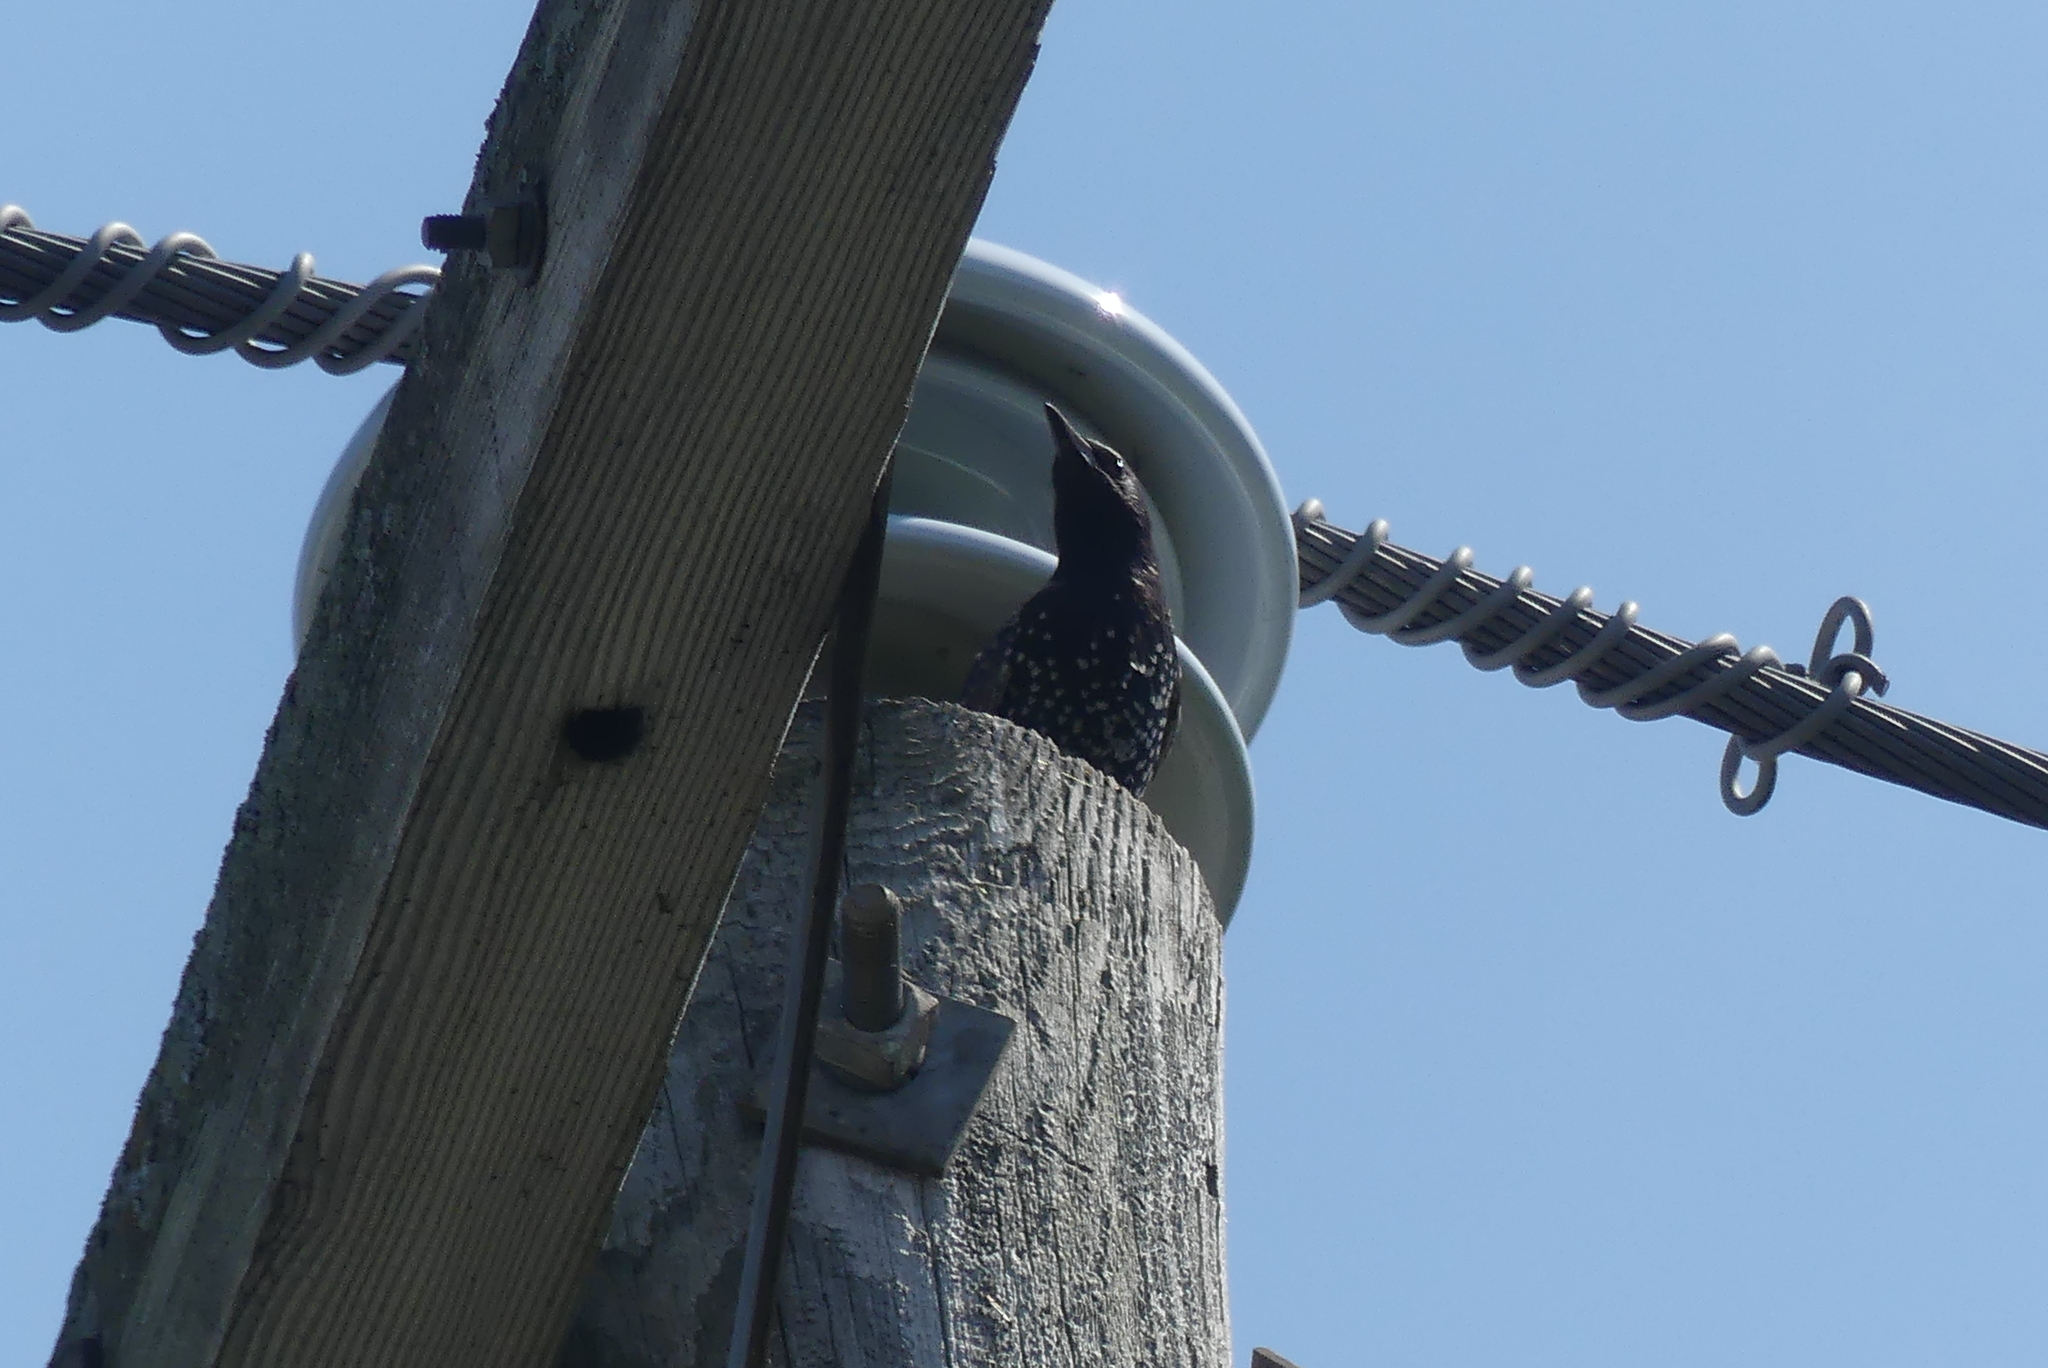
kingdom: Animalia
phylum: Chordata
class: Aves
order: Passeriformes
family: Sturnidae
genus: Sturnus
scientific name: Sturnus vulgaris
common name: Common starling
